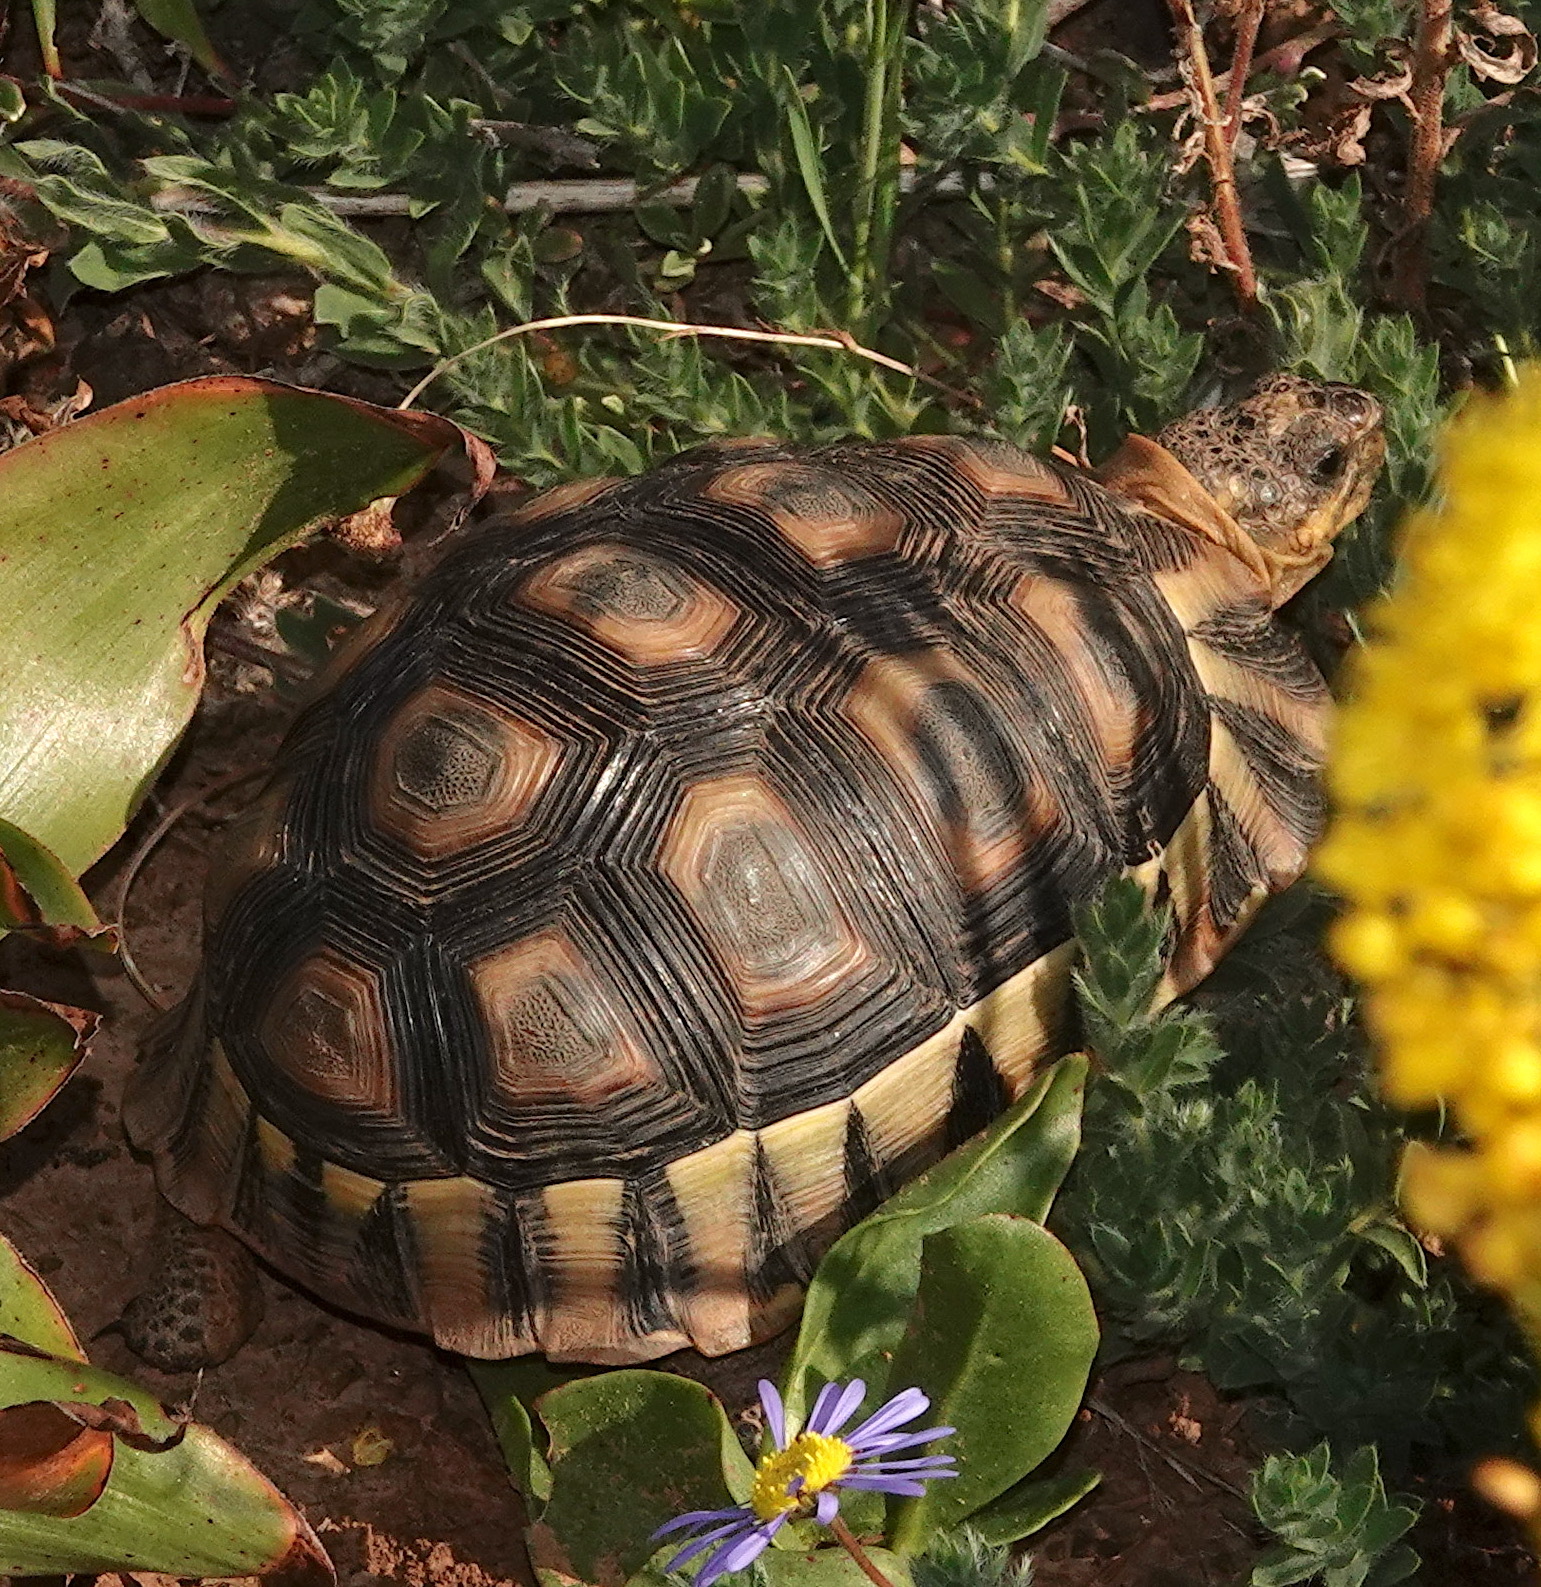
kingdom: Animalia
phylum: Chordata
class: Testudines
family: Testudinidae
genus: Chersina
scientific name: Chersina angulata
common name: South african bowsprit tortoise
